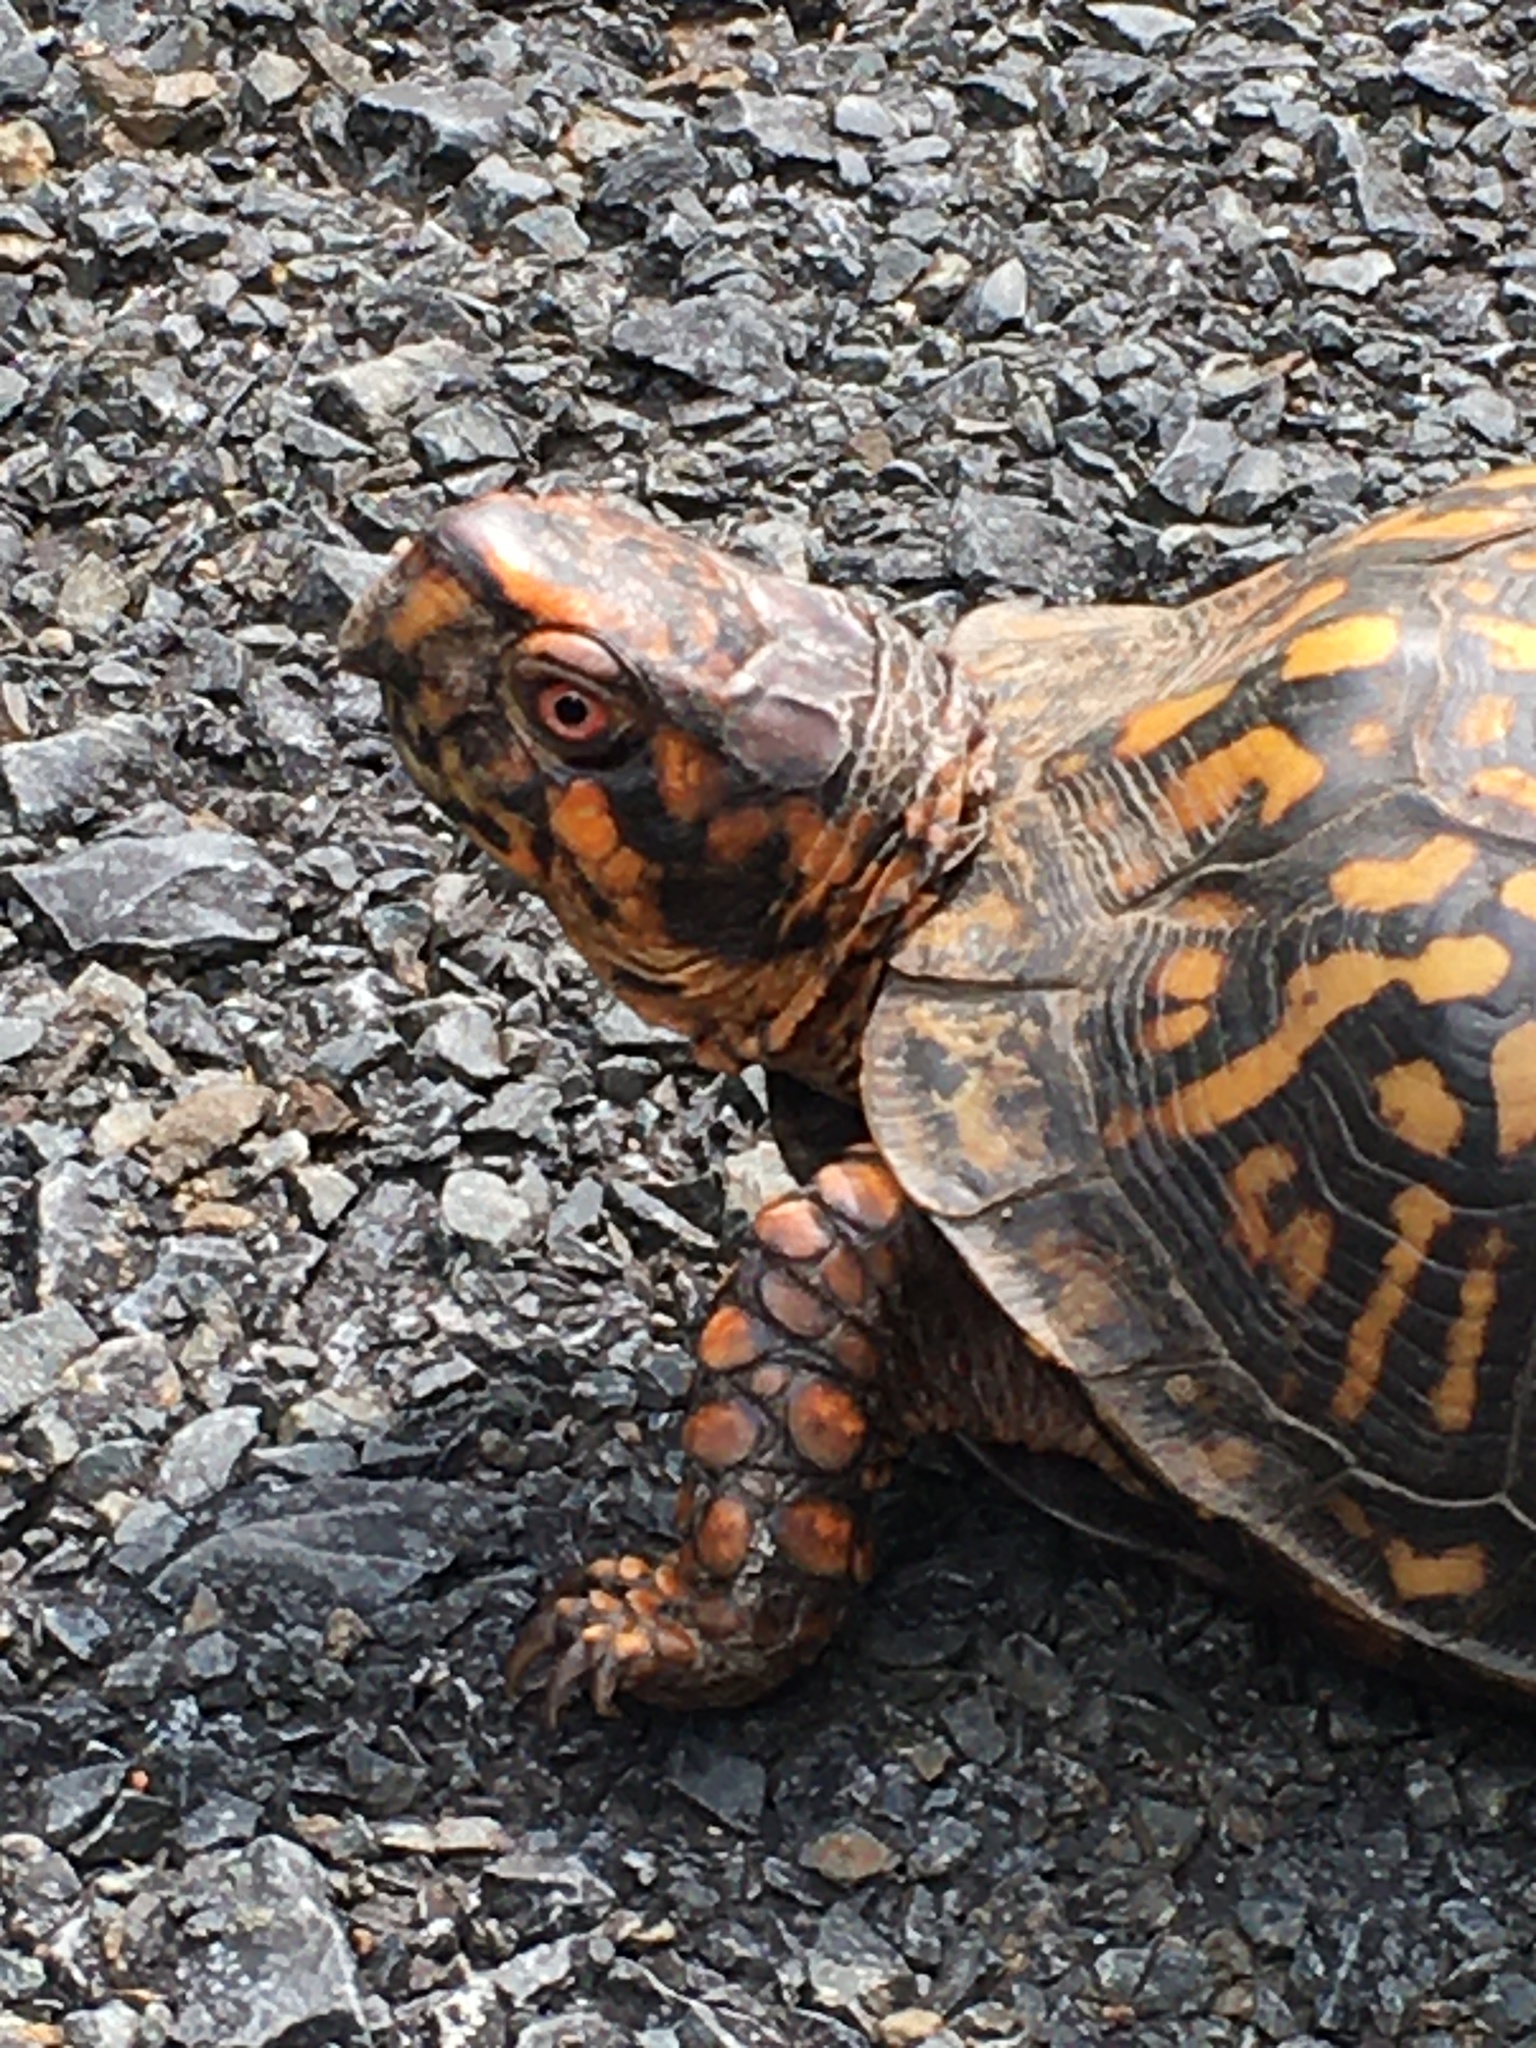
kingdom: Animalia
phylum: Chordata
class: Testudines
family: Emydidae
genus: Terrapene
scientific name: Terrapene carolina
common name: Common box turtle
